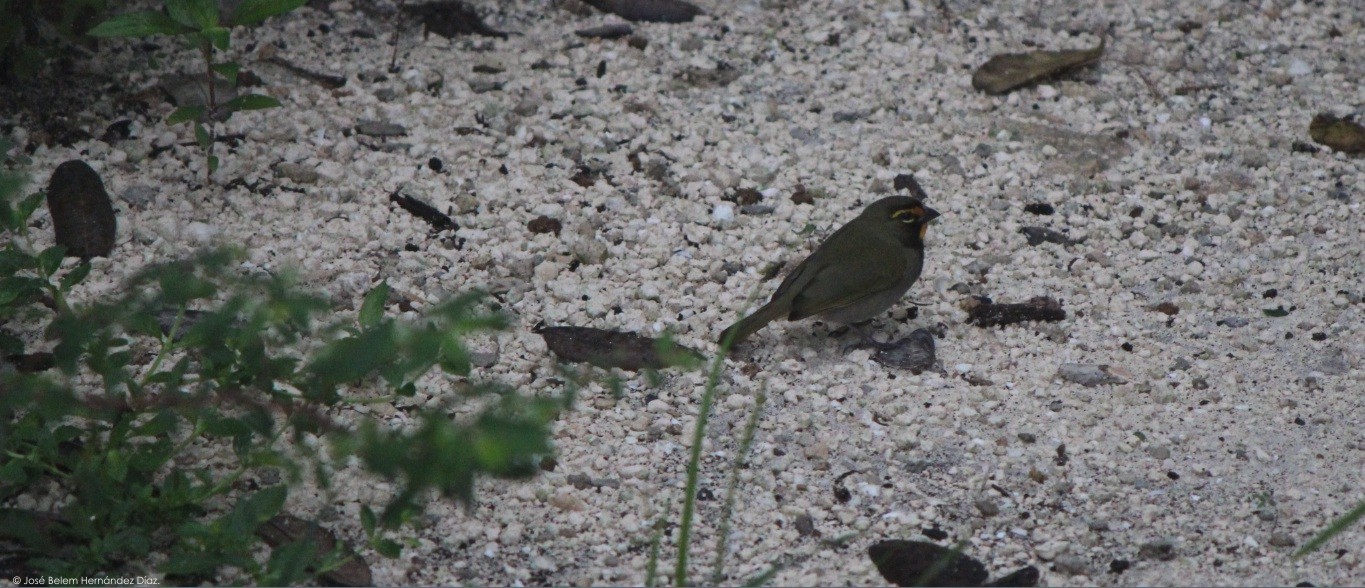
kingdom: Animalia
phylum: Chordata
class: Aves
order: Passeriformes
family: Thraupidae
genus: Tiaris
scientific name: Tiaris olivaceus
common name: Yellow-faced grassquit
